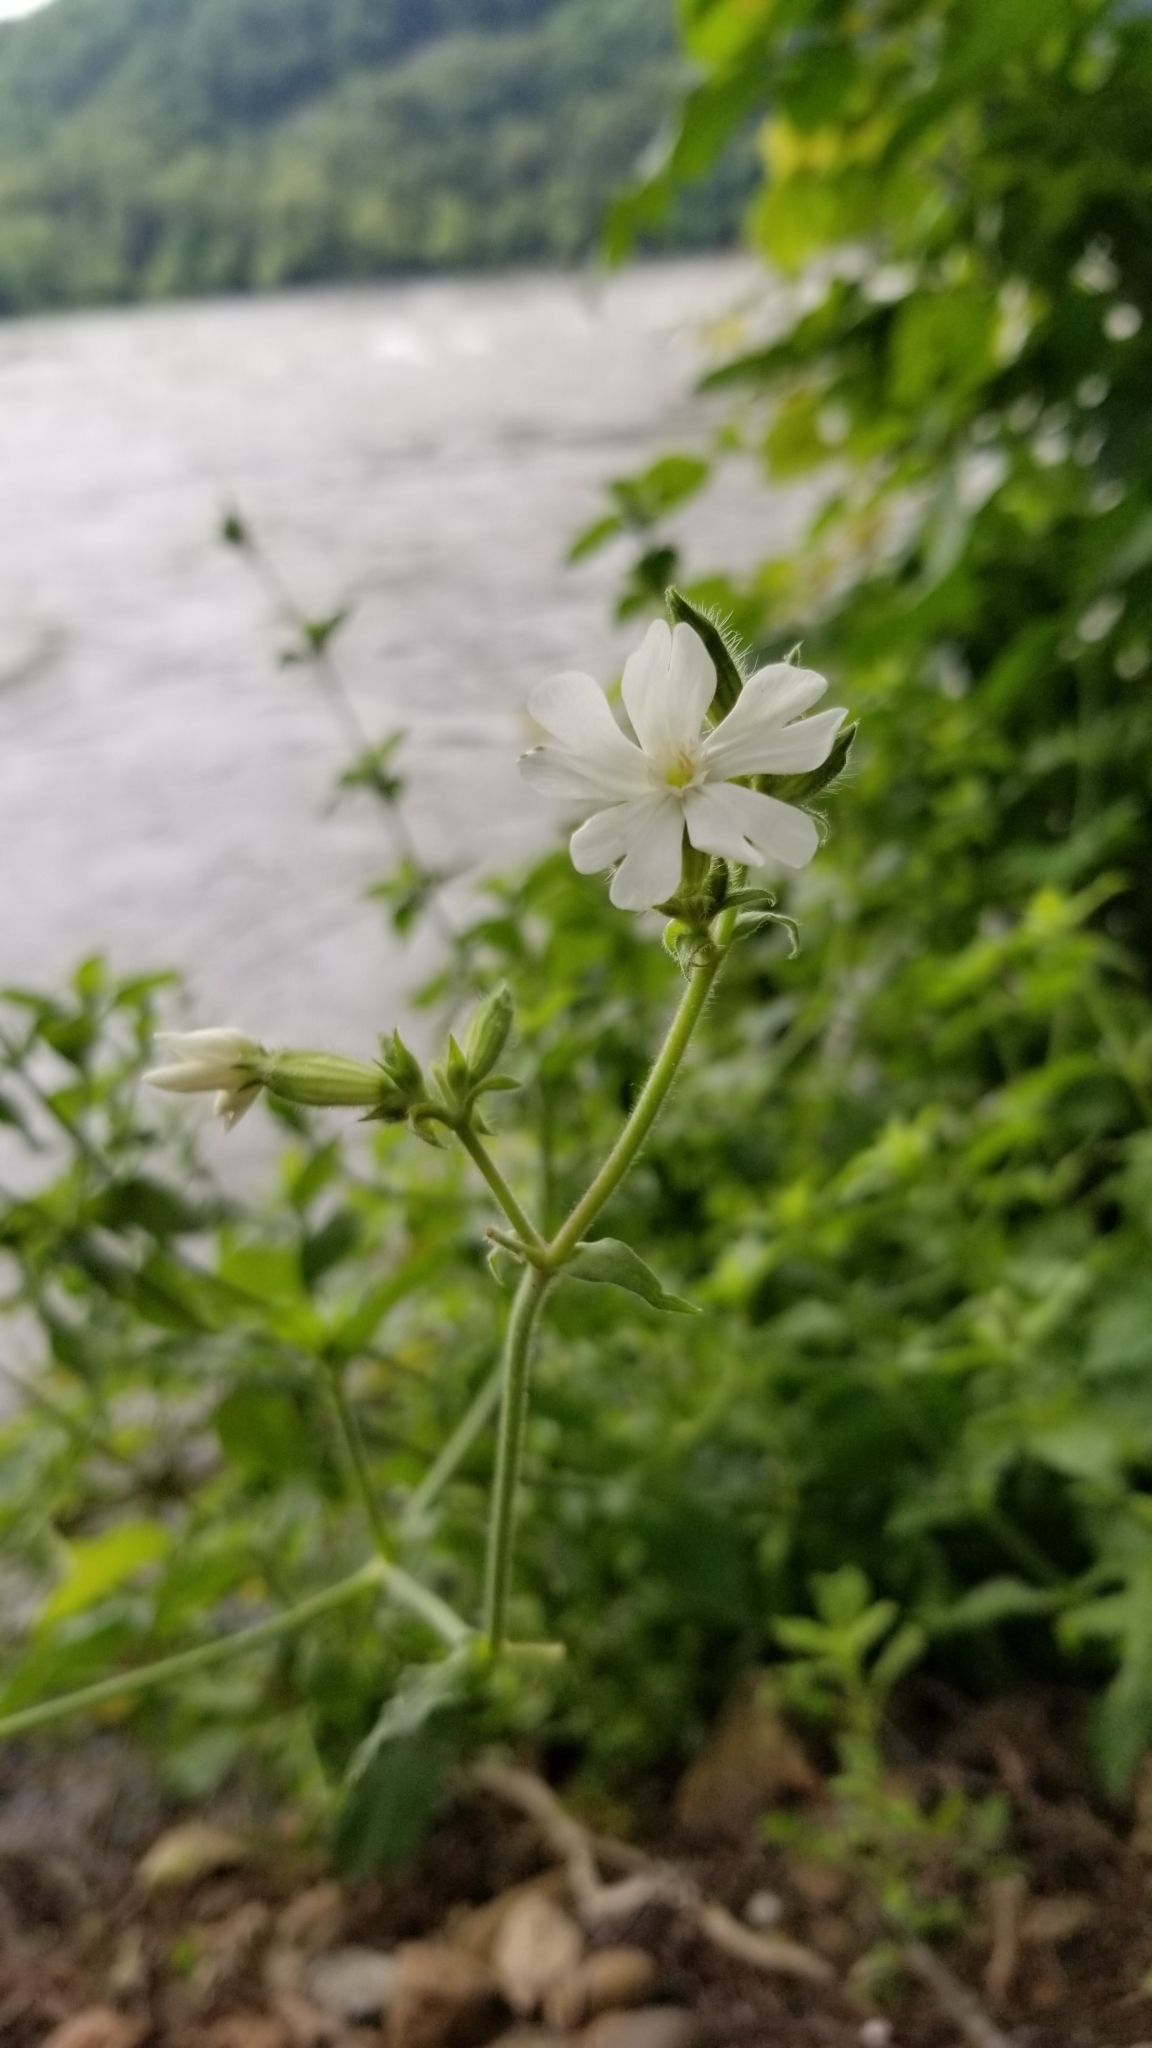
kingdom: Plantae
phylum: Tracheophyta
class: Magnoliopsida
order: Caryophyllales
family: Caryophyllaceae
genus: Silene
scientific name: Silene latifolia
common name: White campion
